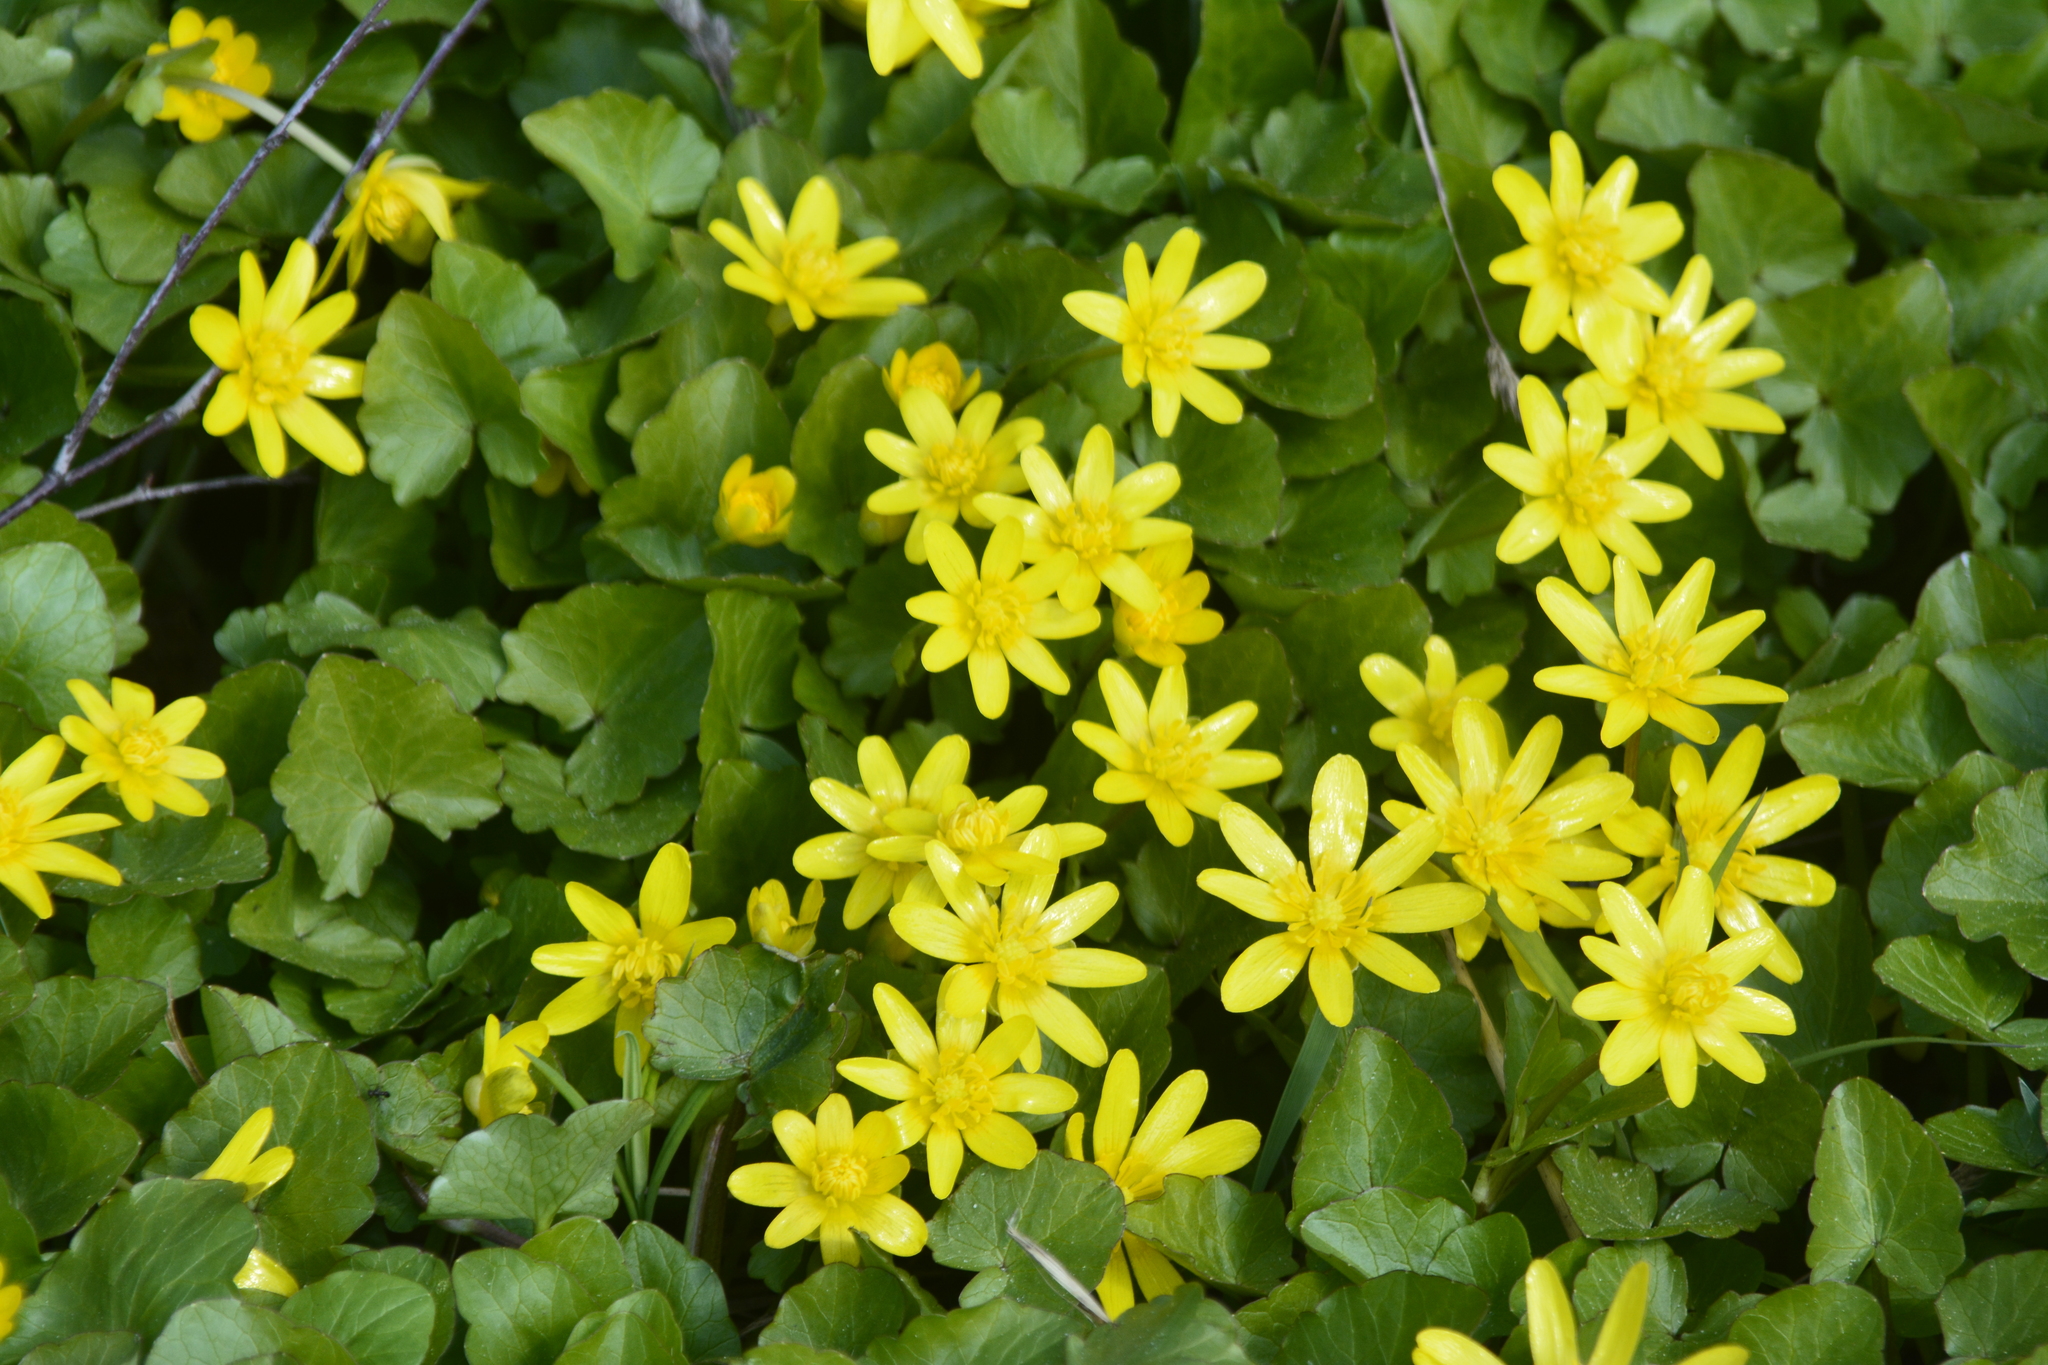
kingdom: Plantae
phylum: Tracheophyta
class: Magnoliopsida
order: Ranunculales
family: Ranunculaceae
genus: Ficaria
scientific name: Ficaria verna
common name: Lesser celandine
